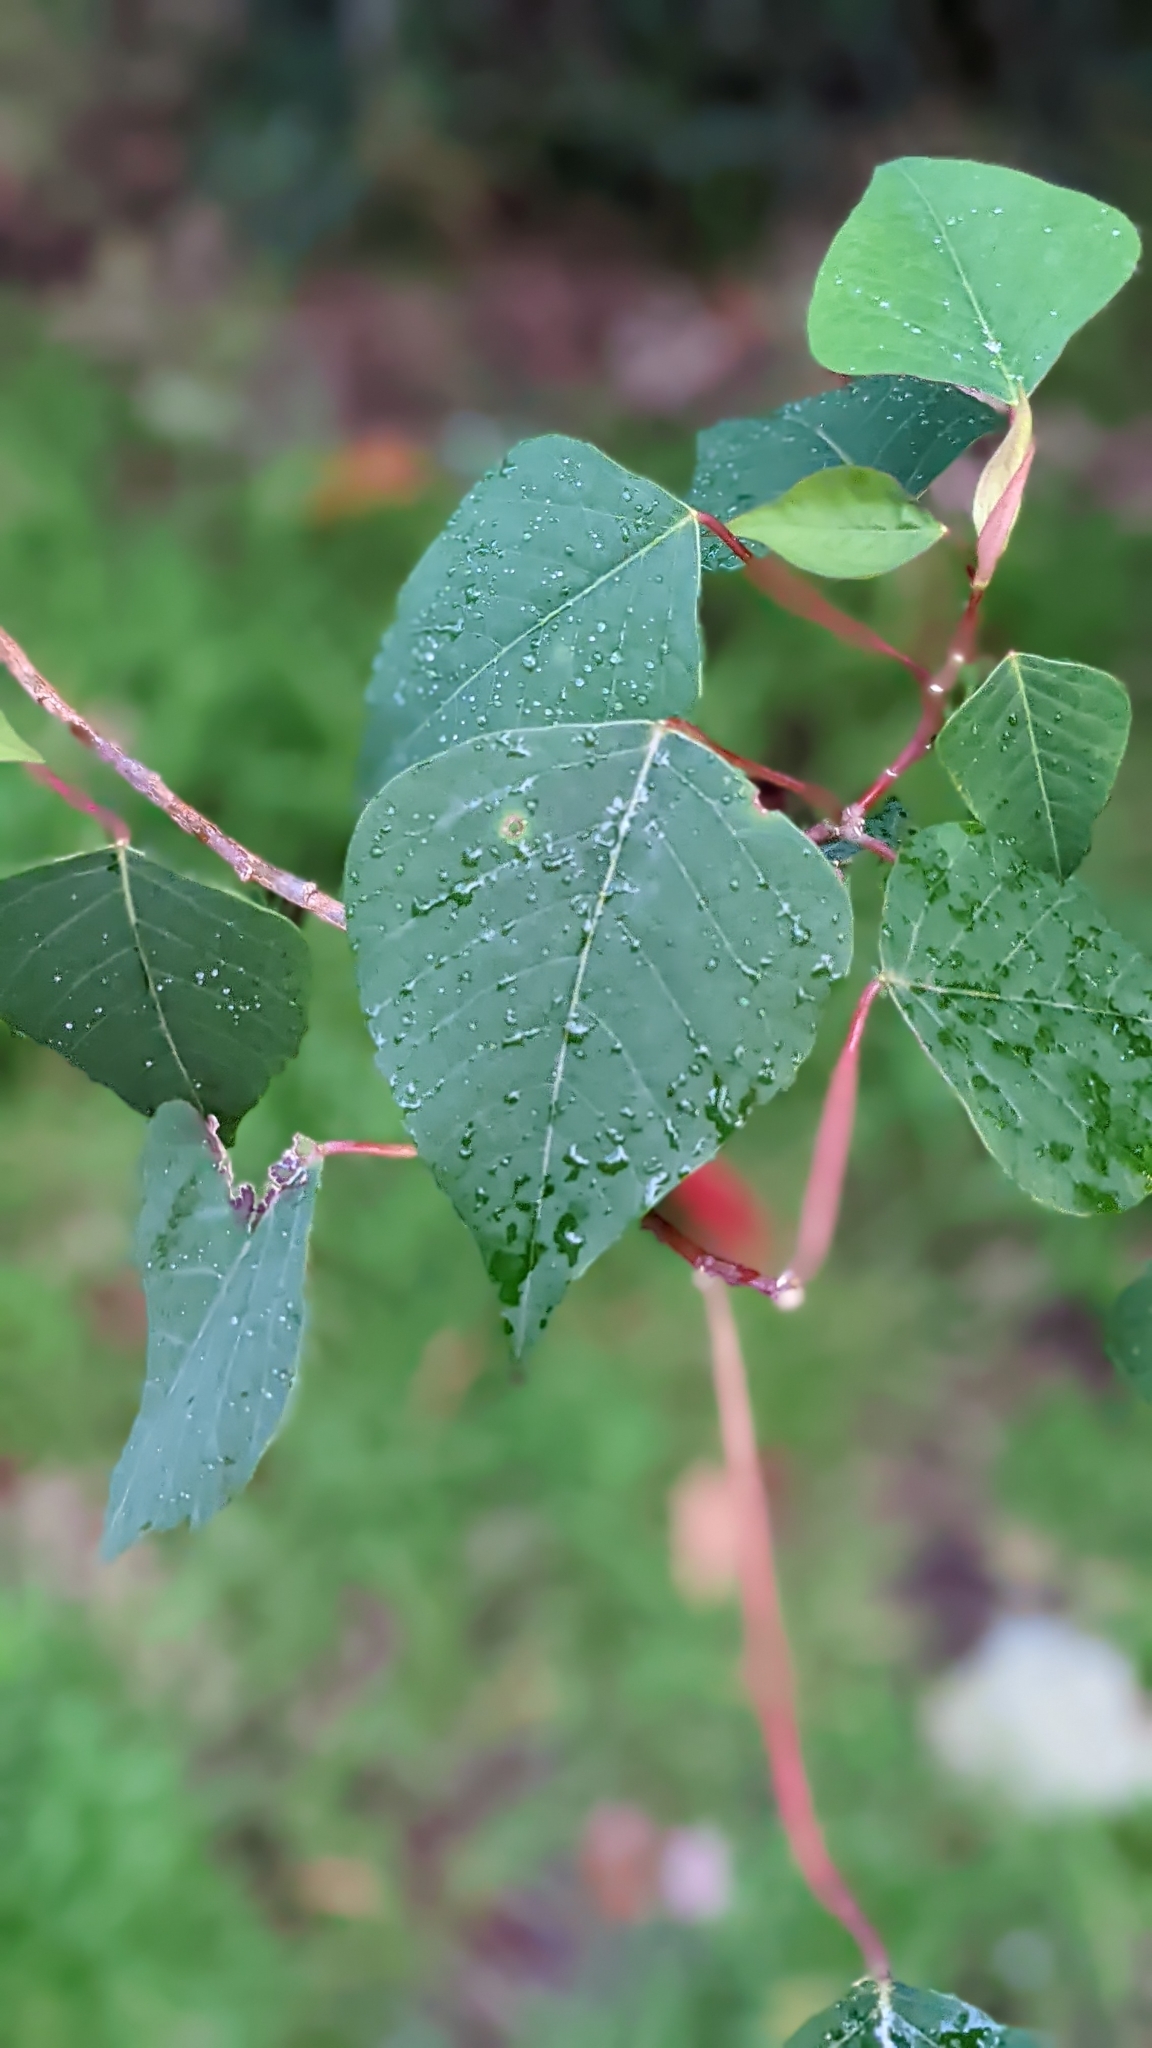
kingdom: Plantae
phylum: Tracheophyta
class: Magnoliopsida
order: Malpighiales
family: Euphorbiaceae
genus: Homalanthus
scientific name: Homalanthus populifolius
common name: Queensland poplar
